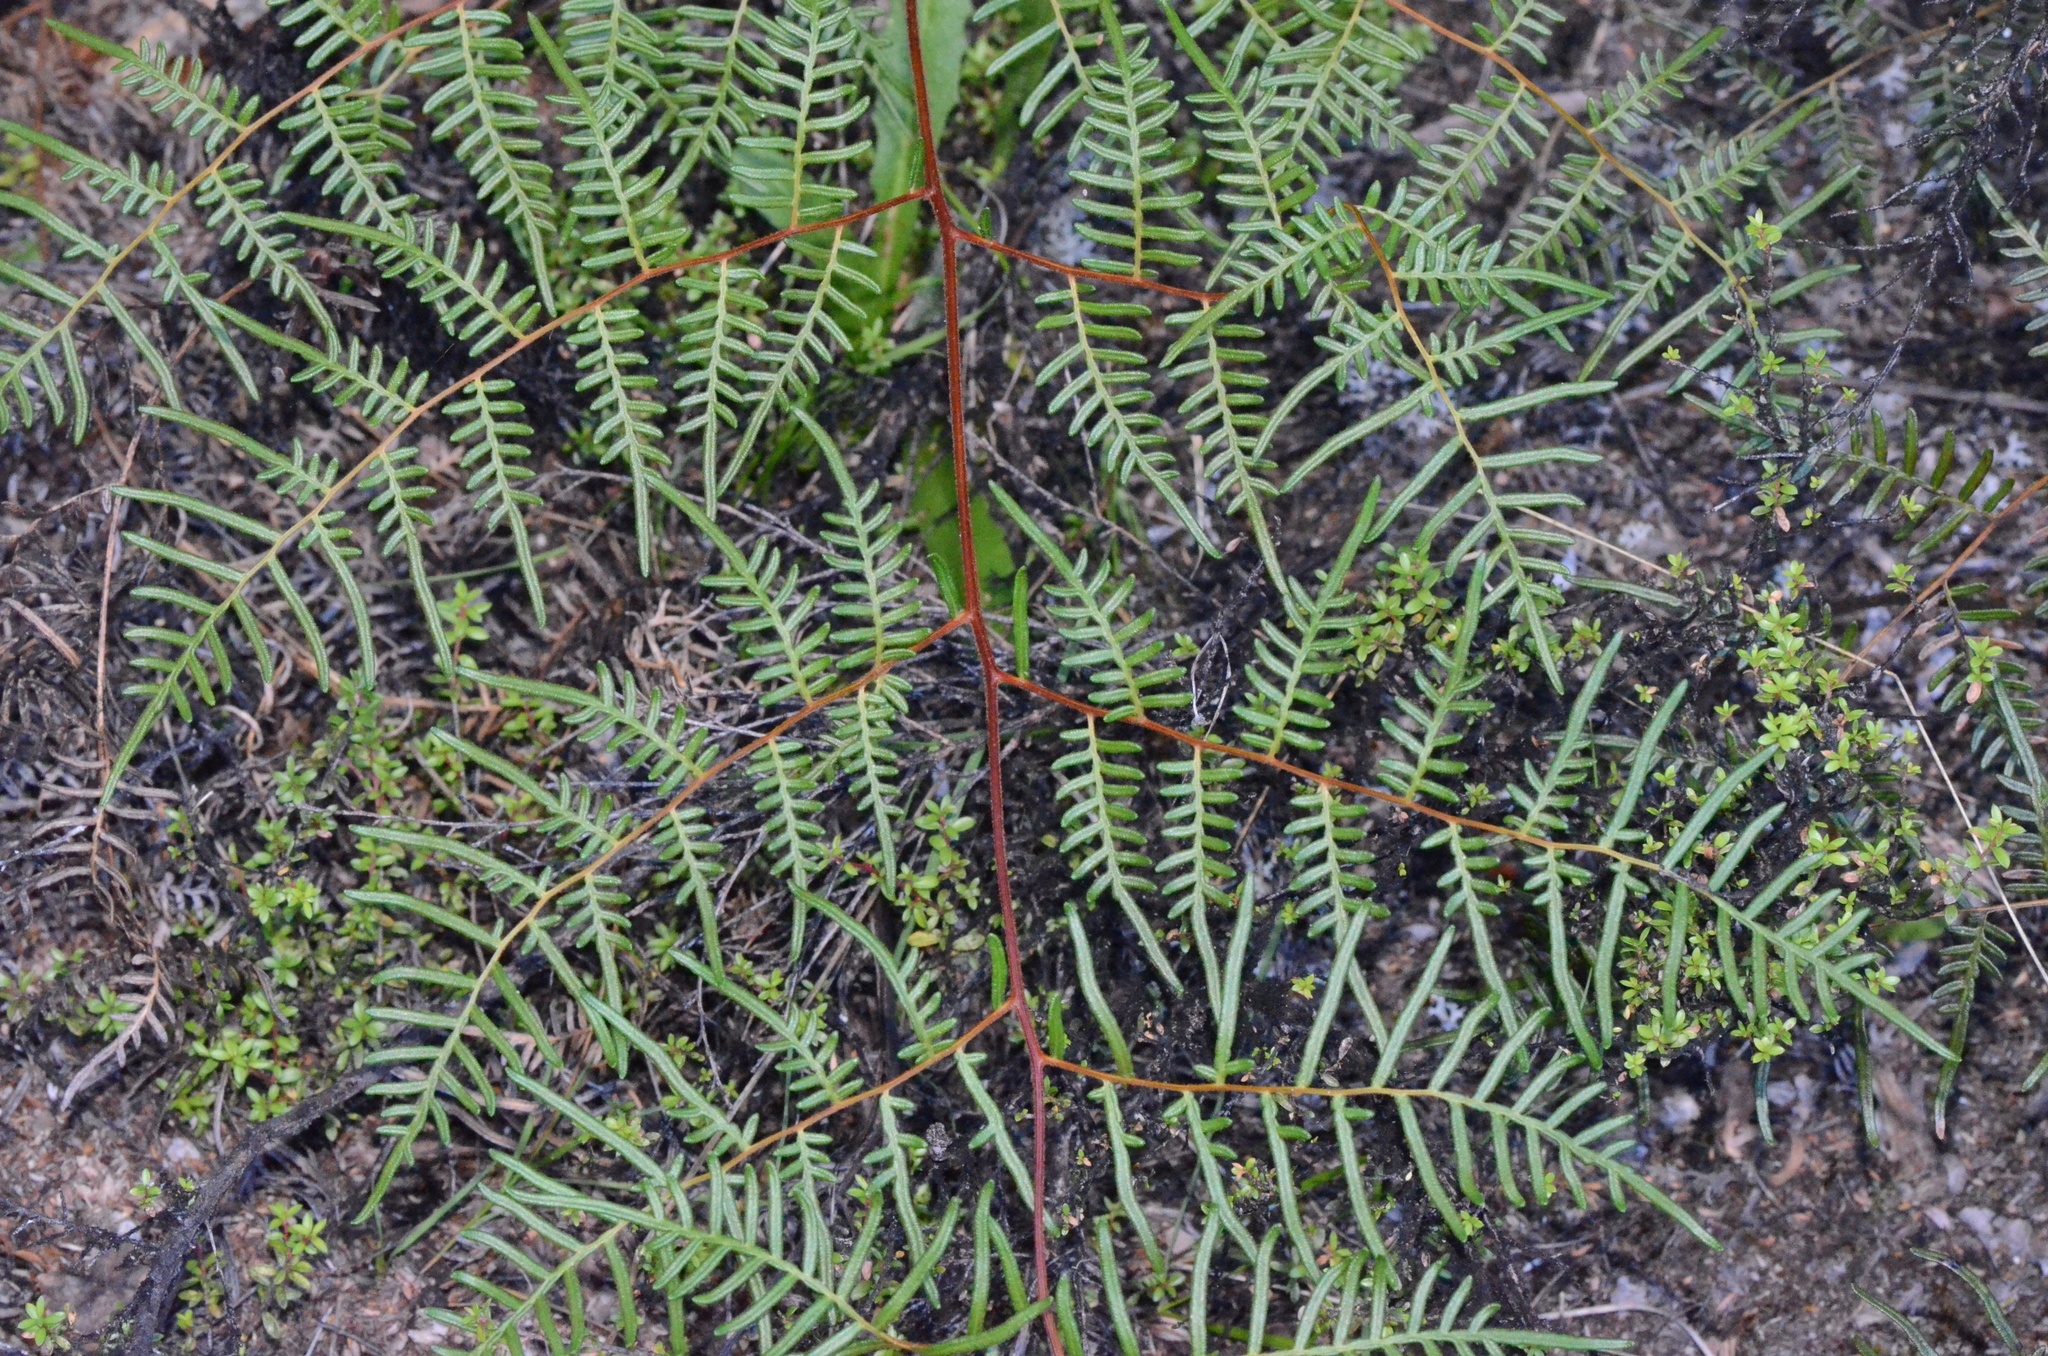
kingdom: Plantae
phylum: Tracheophyta
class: Polypodiopsida
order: Polypodiales
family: Dennstaedtiaceae
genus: Pteridium
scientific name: Pteridium esculentum
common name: Bracken fern
